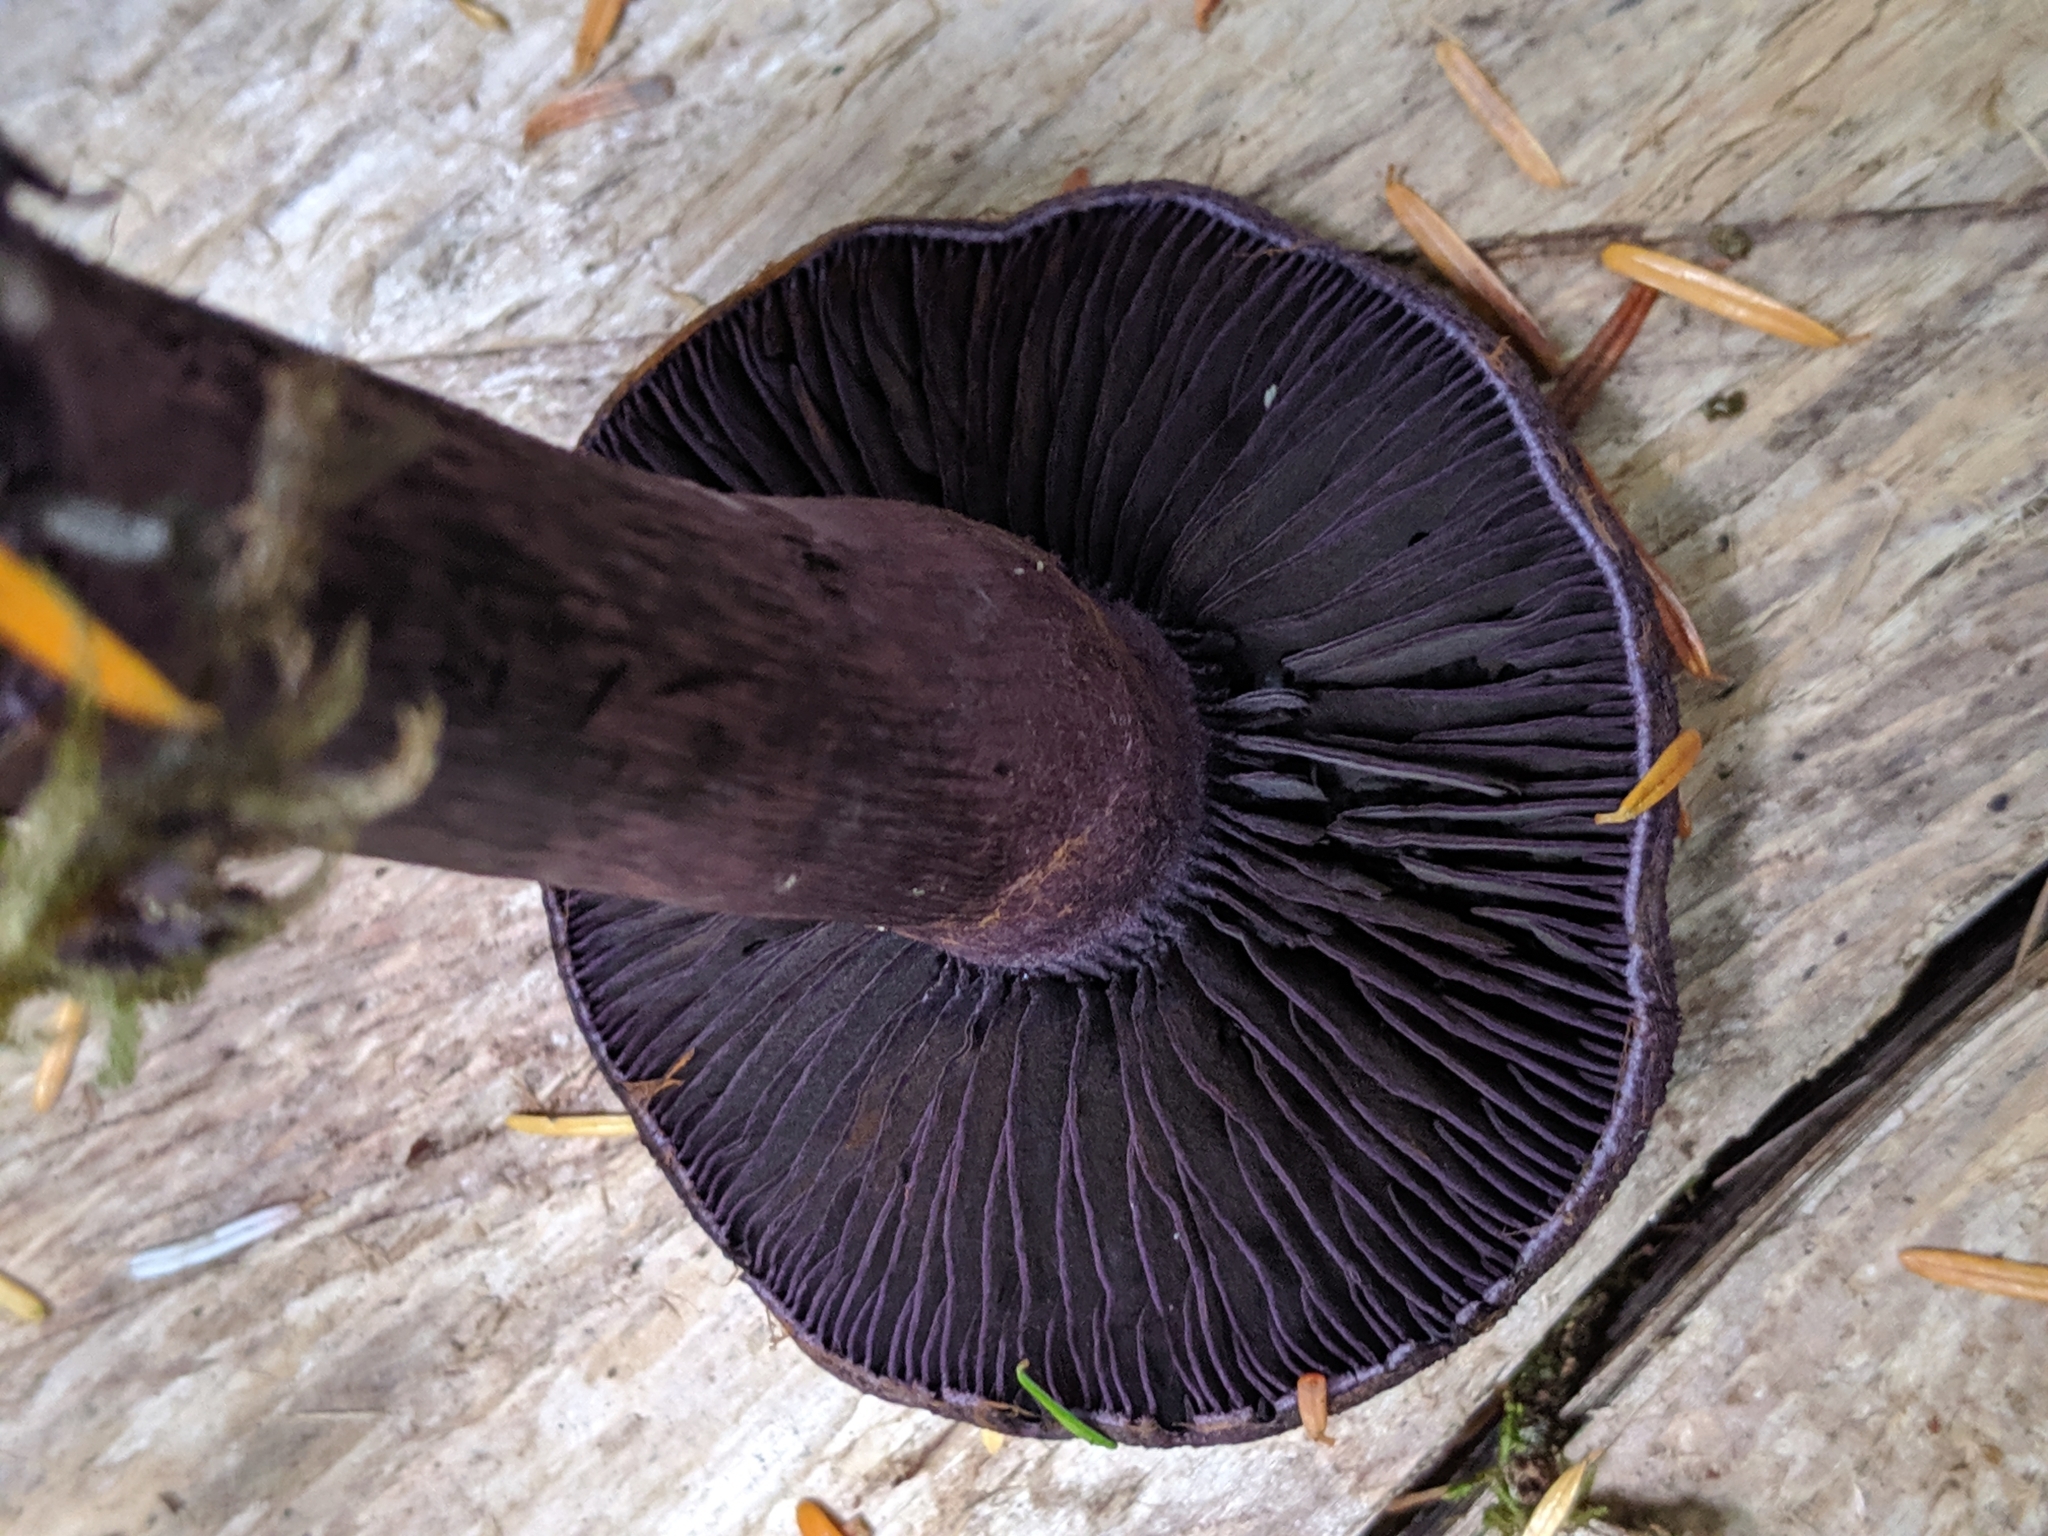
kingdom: Fungi
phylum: Basidiomycota
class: Agaricomycetes
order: Agaricales
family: Cortinariaceae
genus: Cortinarius
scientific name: Cortinarius violaceus
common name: Violet webcap
